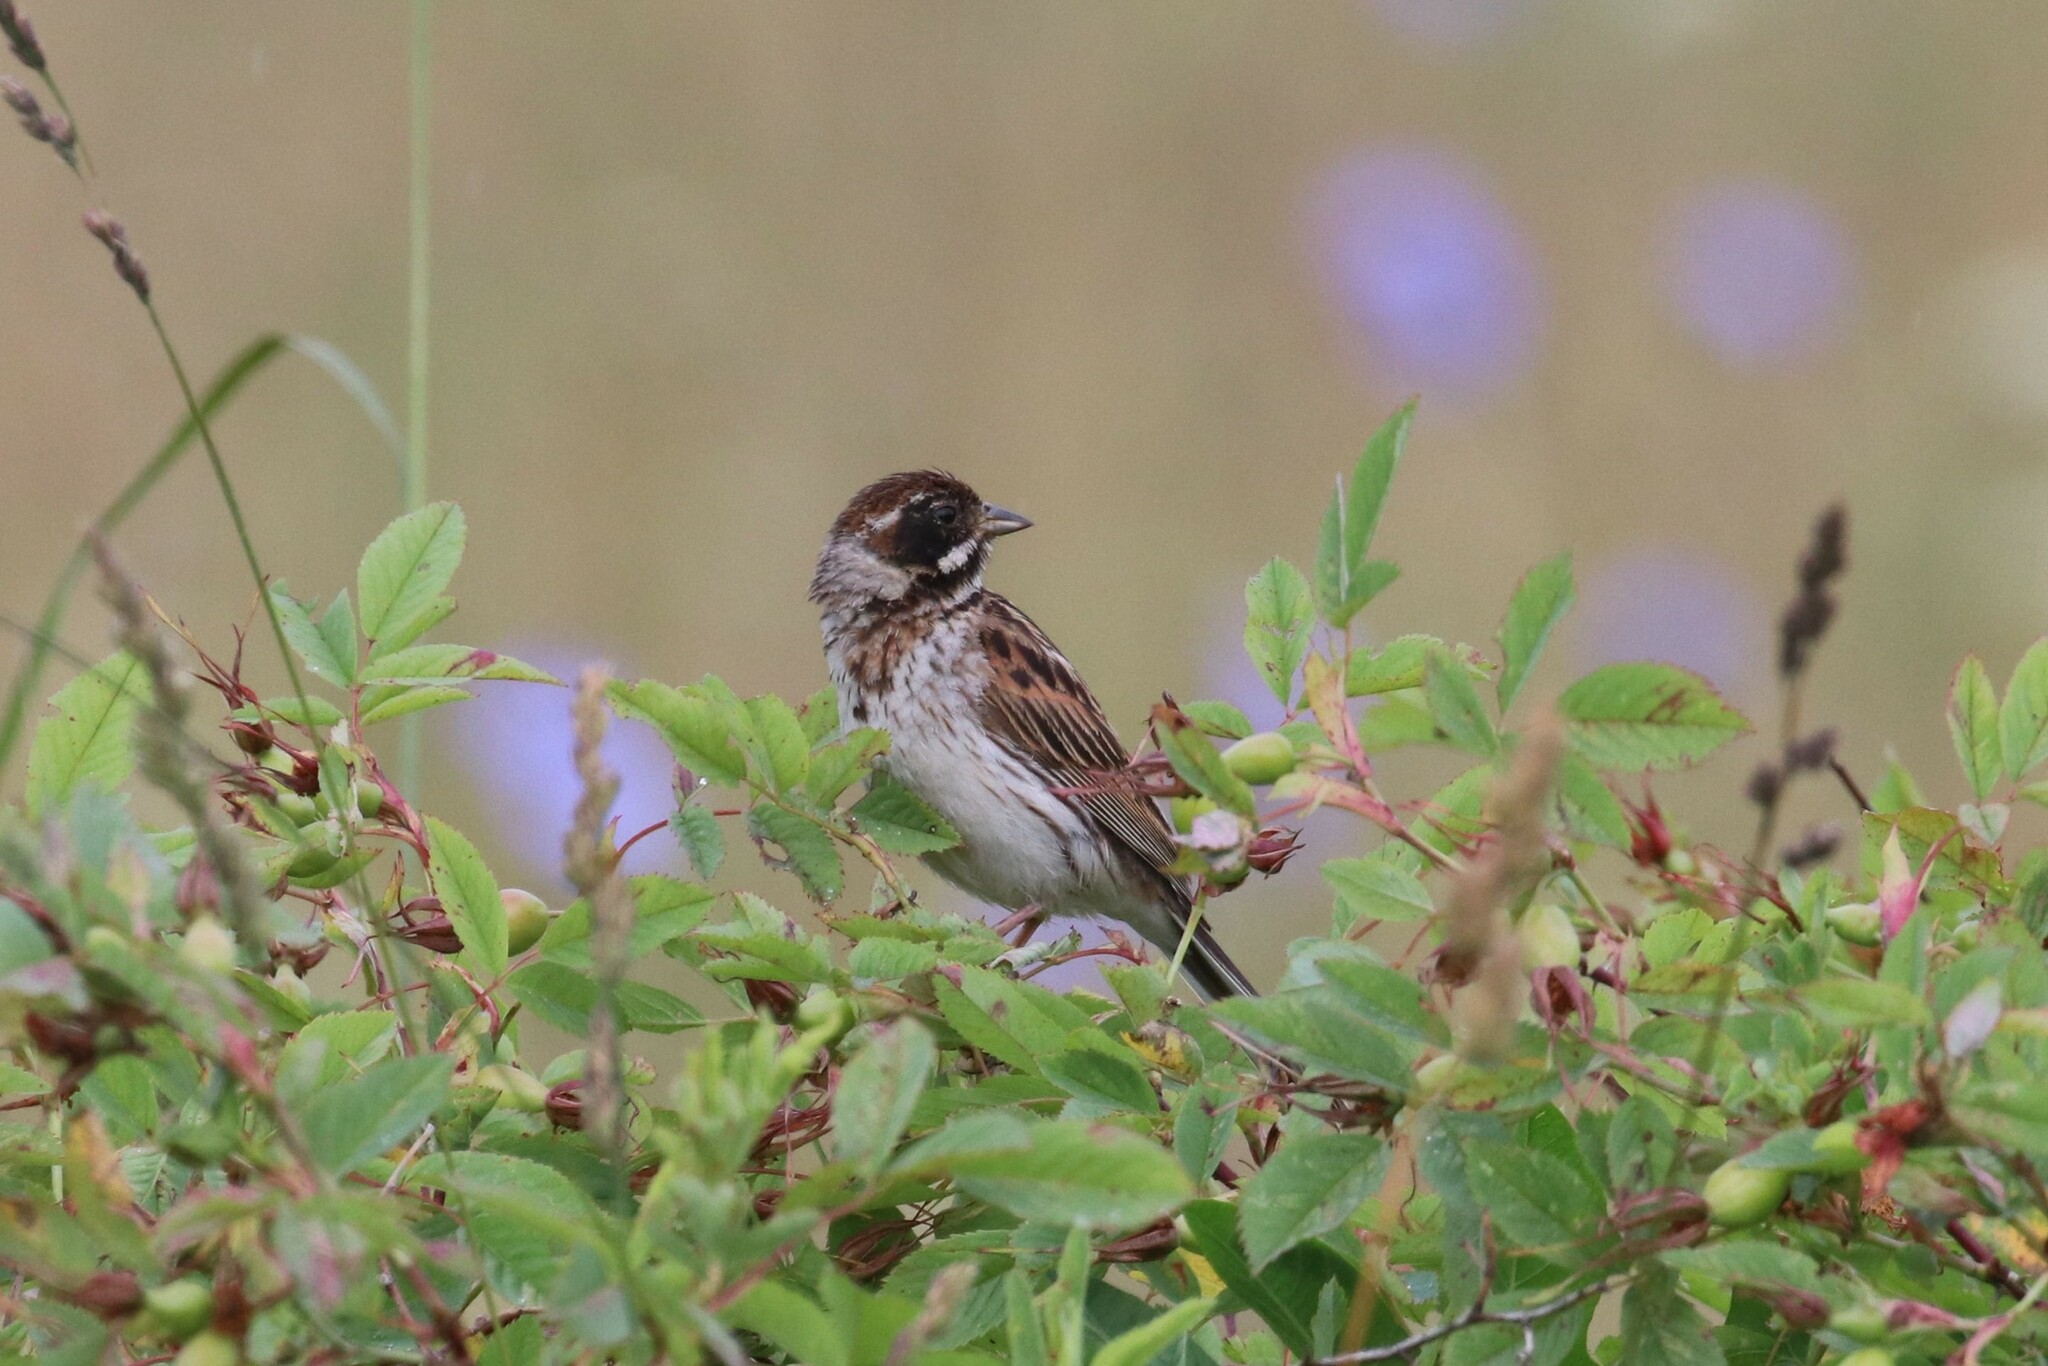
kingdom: Animalia
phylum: Chordata
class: Aves
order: Passeriformes
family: Emberizidae
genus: Emberiza
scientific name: Emberiza schoeniclus
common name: Reed bunting
